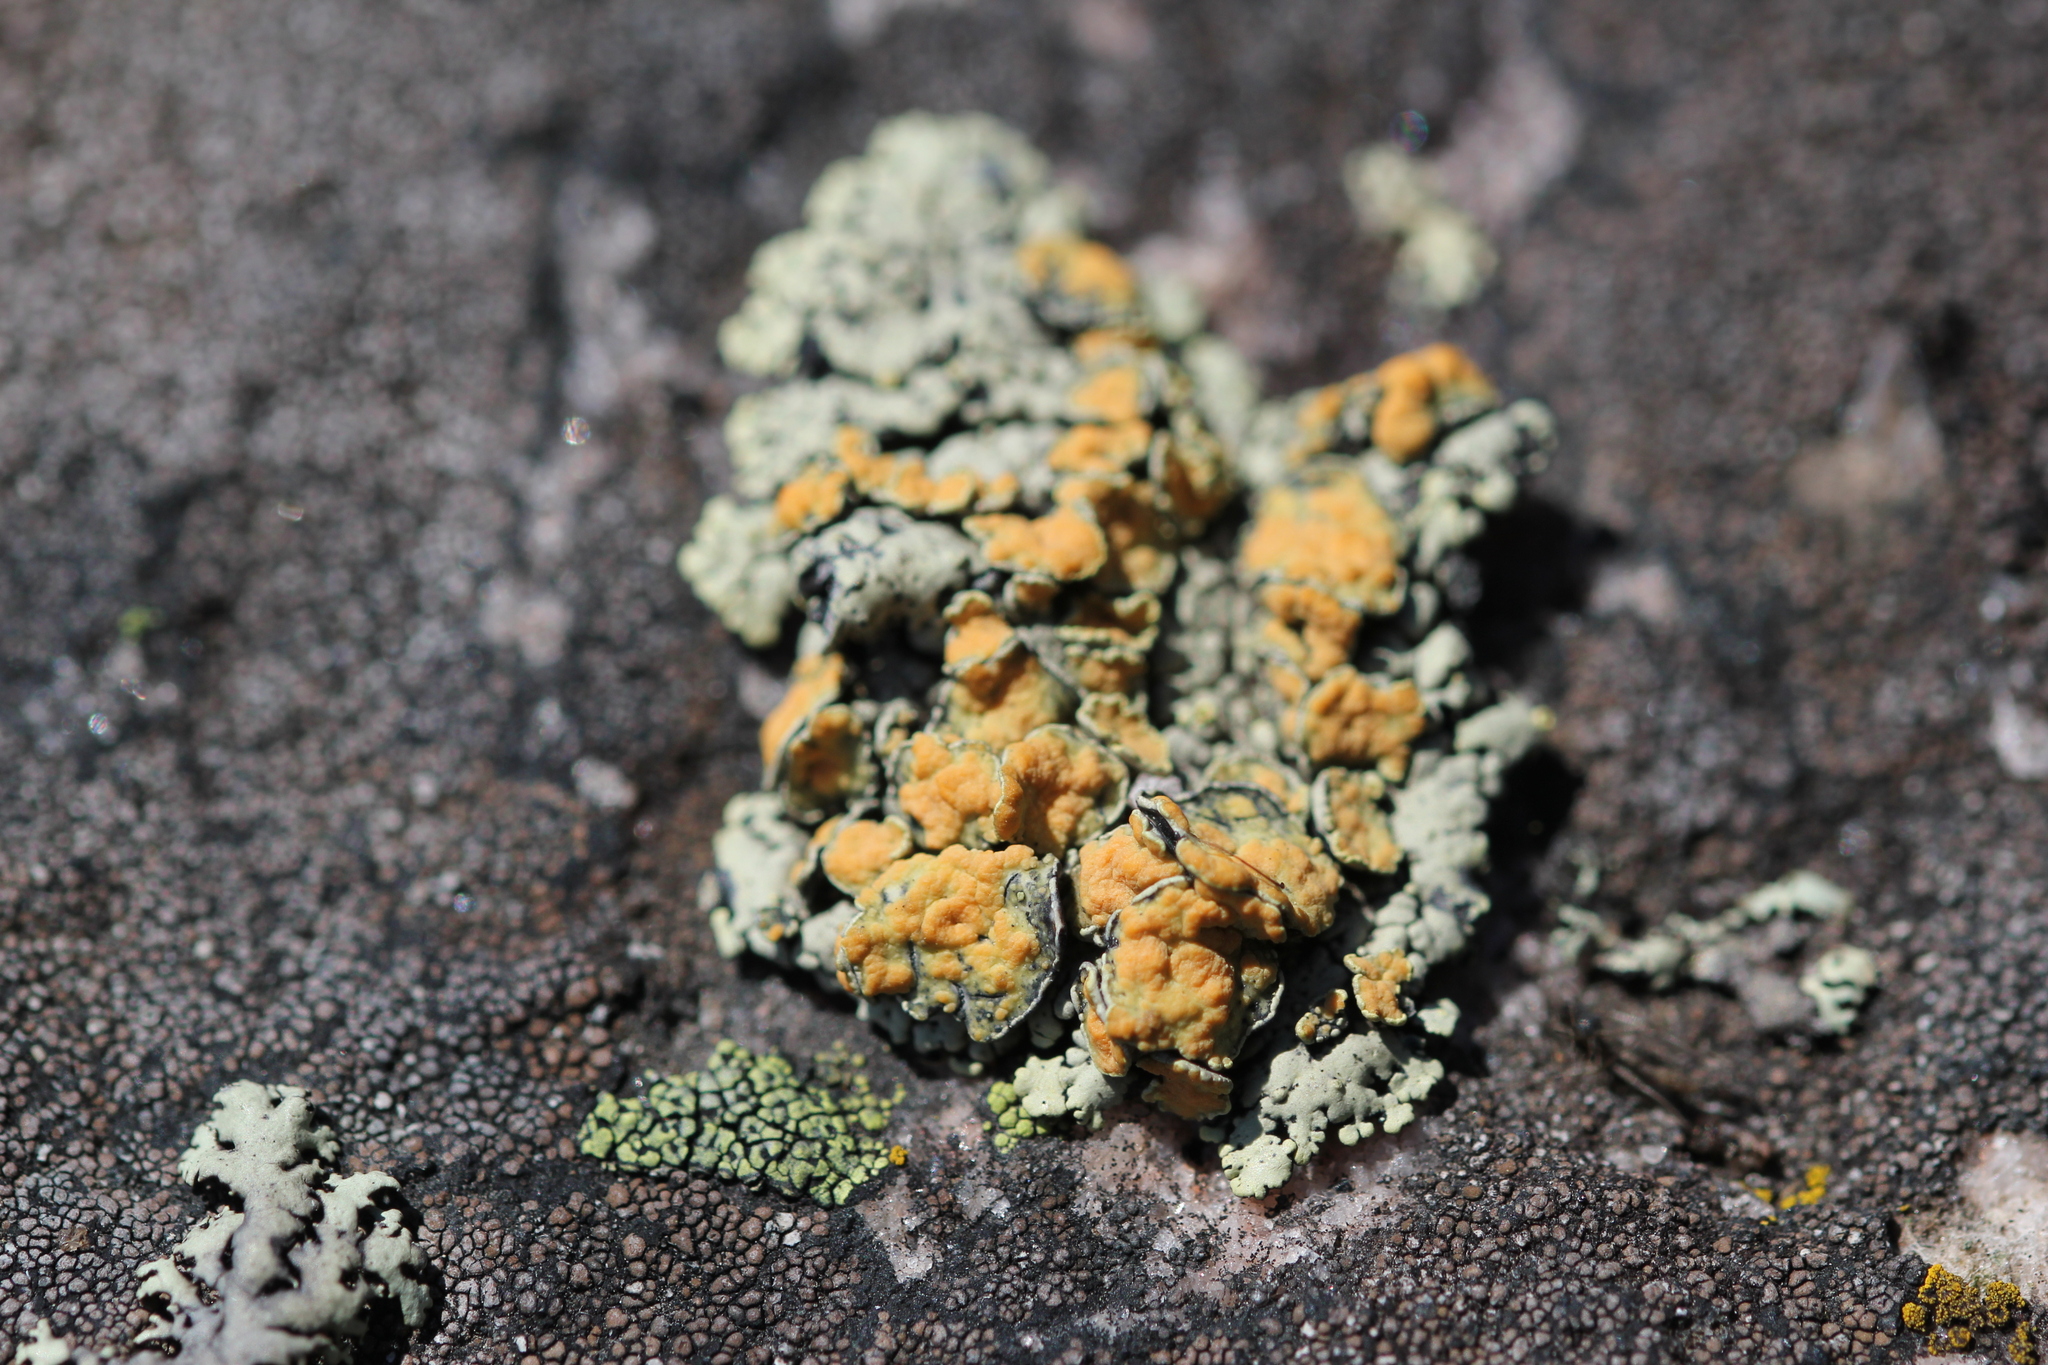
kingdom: Fungi
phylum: Ascomycota
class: Lecanoromycetes
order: Lecanorales
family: Lecanoraceae
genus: Omphalodina
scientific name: Omphalodina chrysoleuca
